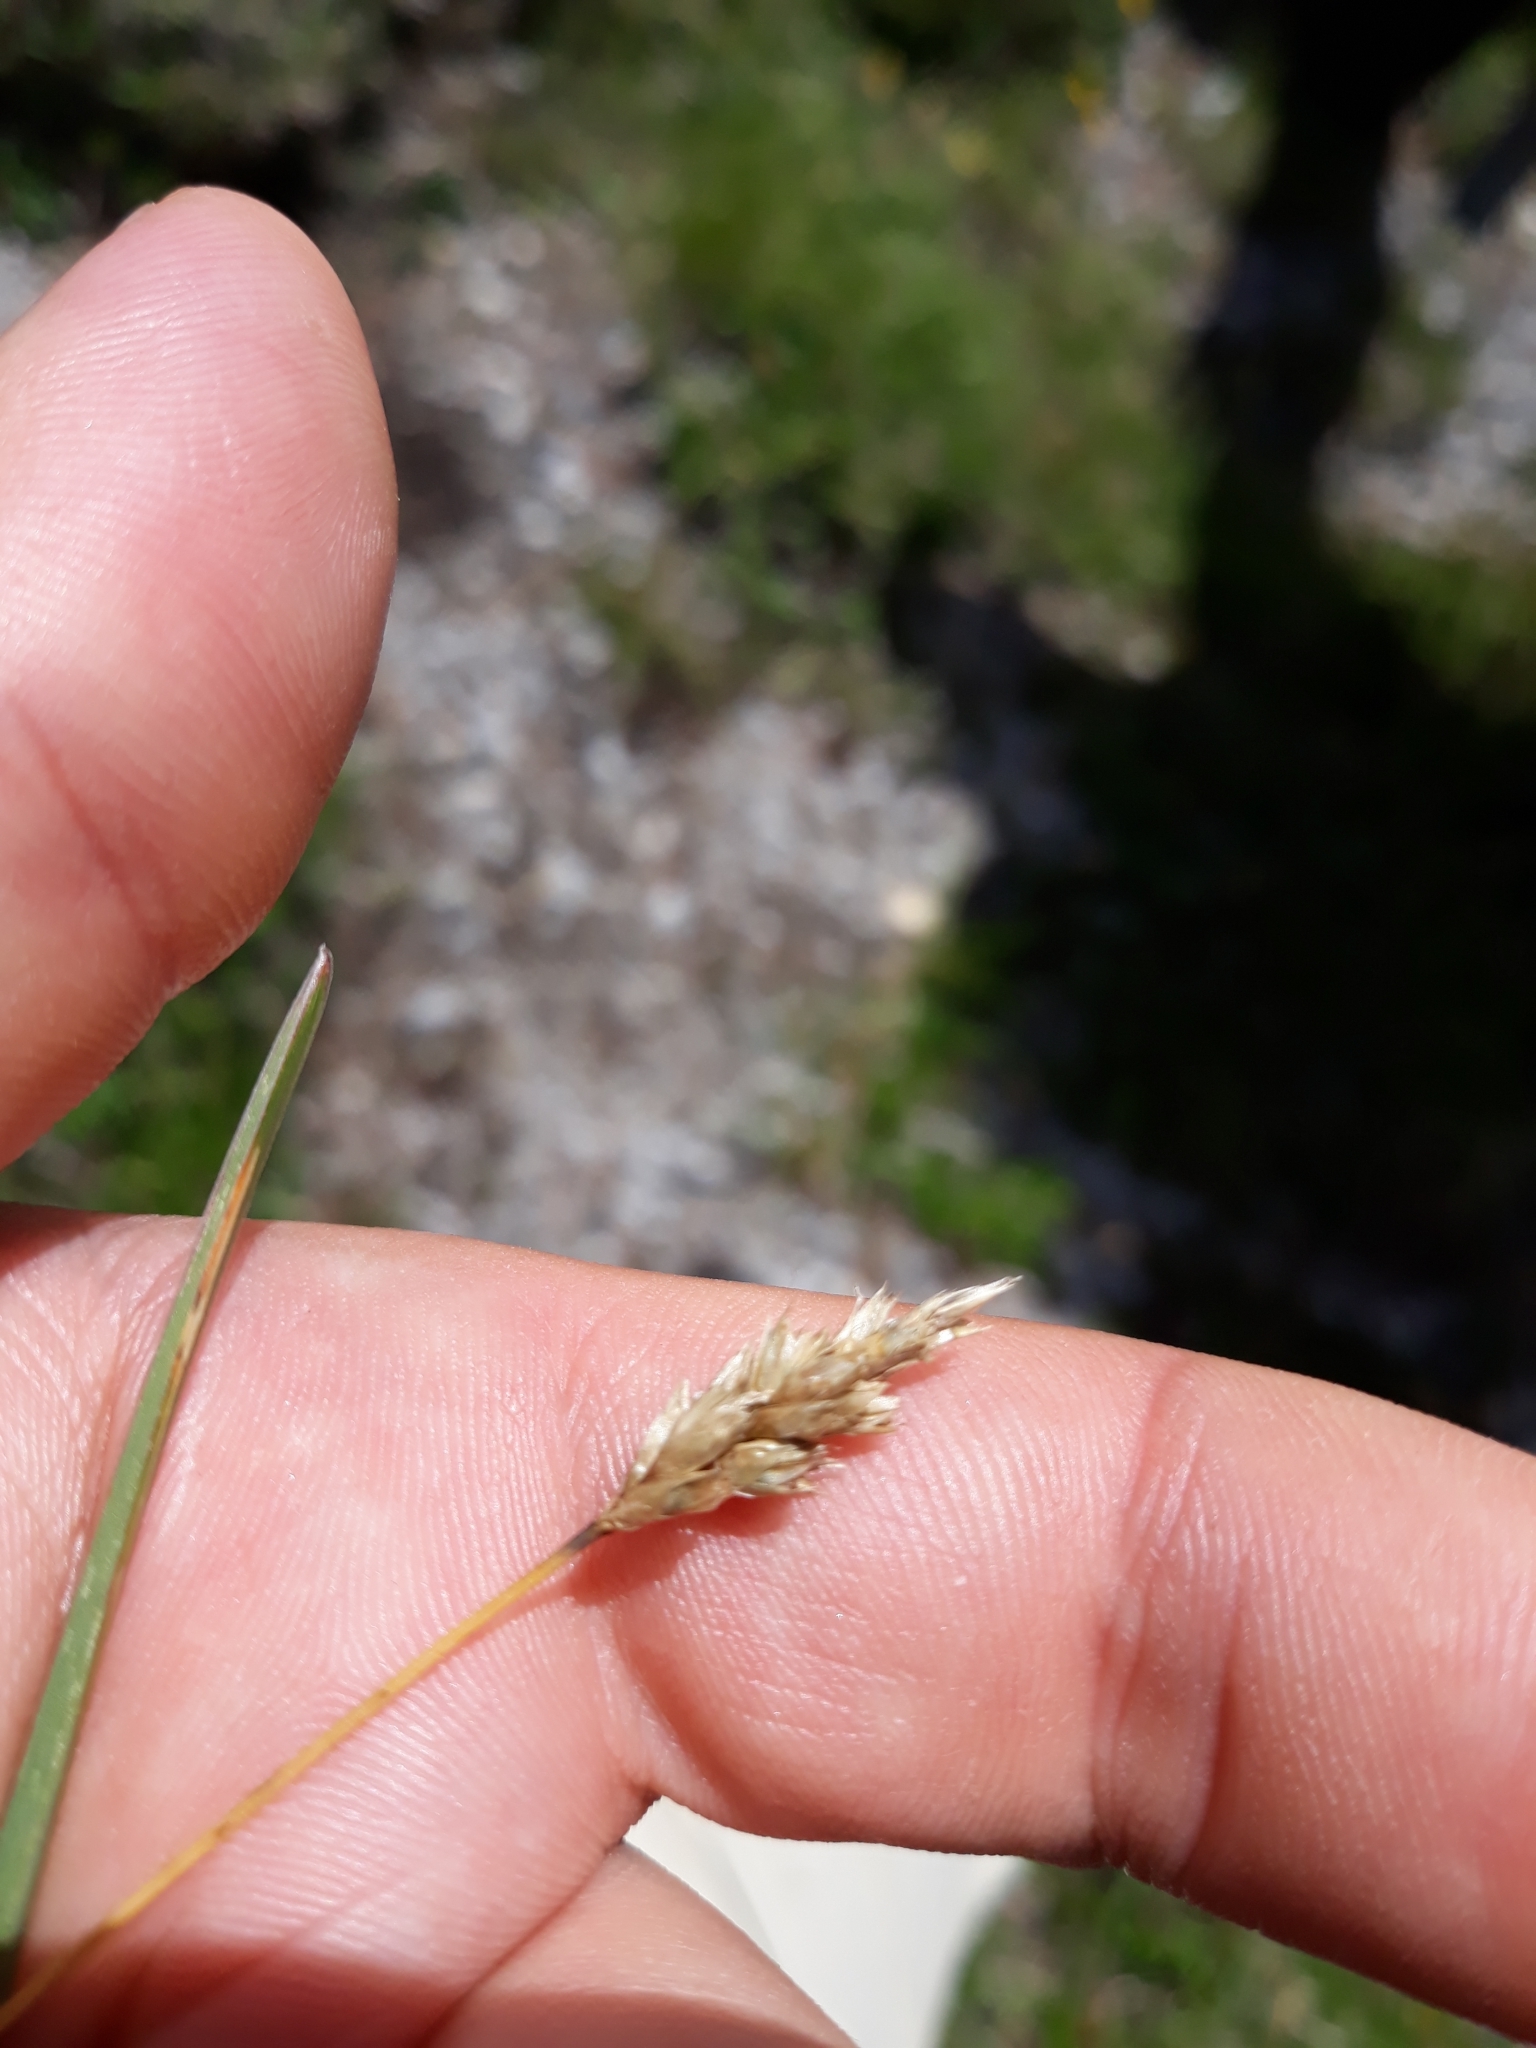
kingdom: Plantae
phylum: Tracheophyta
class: Liliopsida
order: Poales
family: Poaceae
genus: Sesleria
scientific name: Sesleria caerulea
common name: Blue moor-grass
